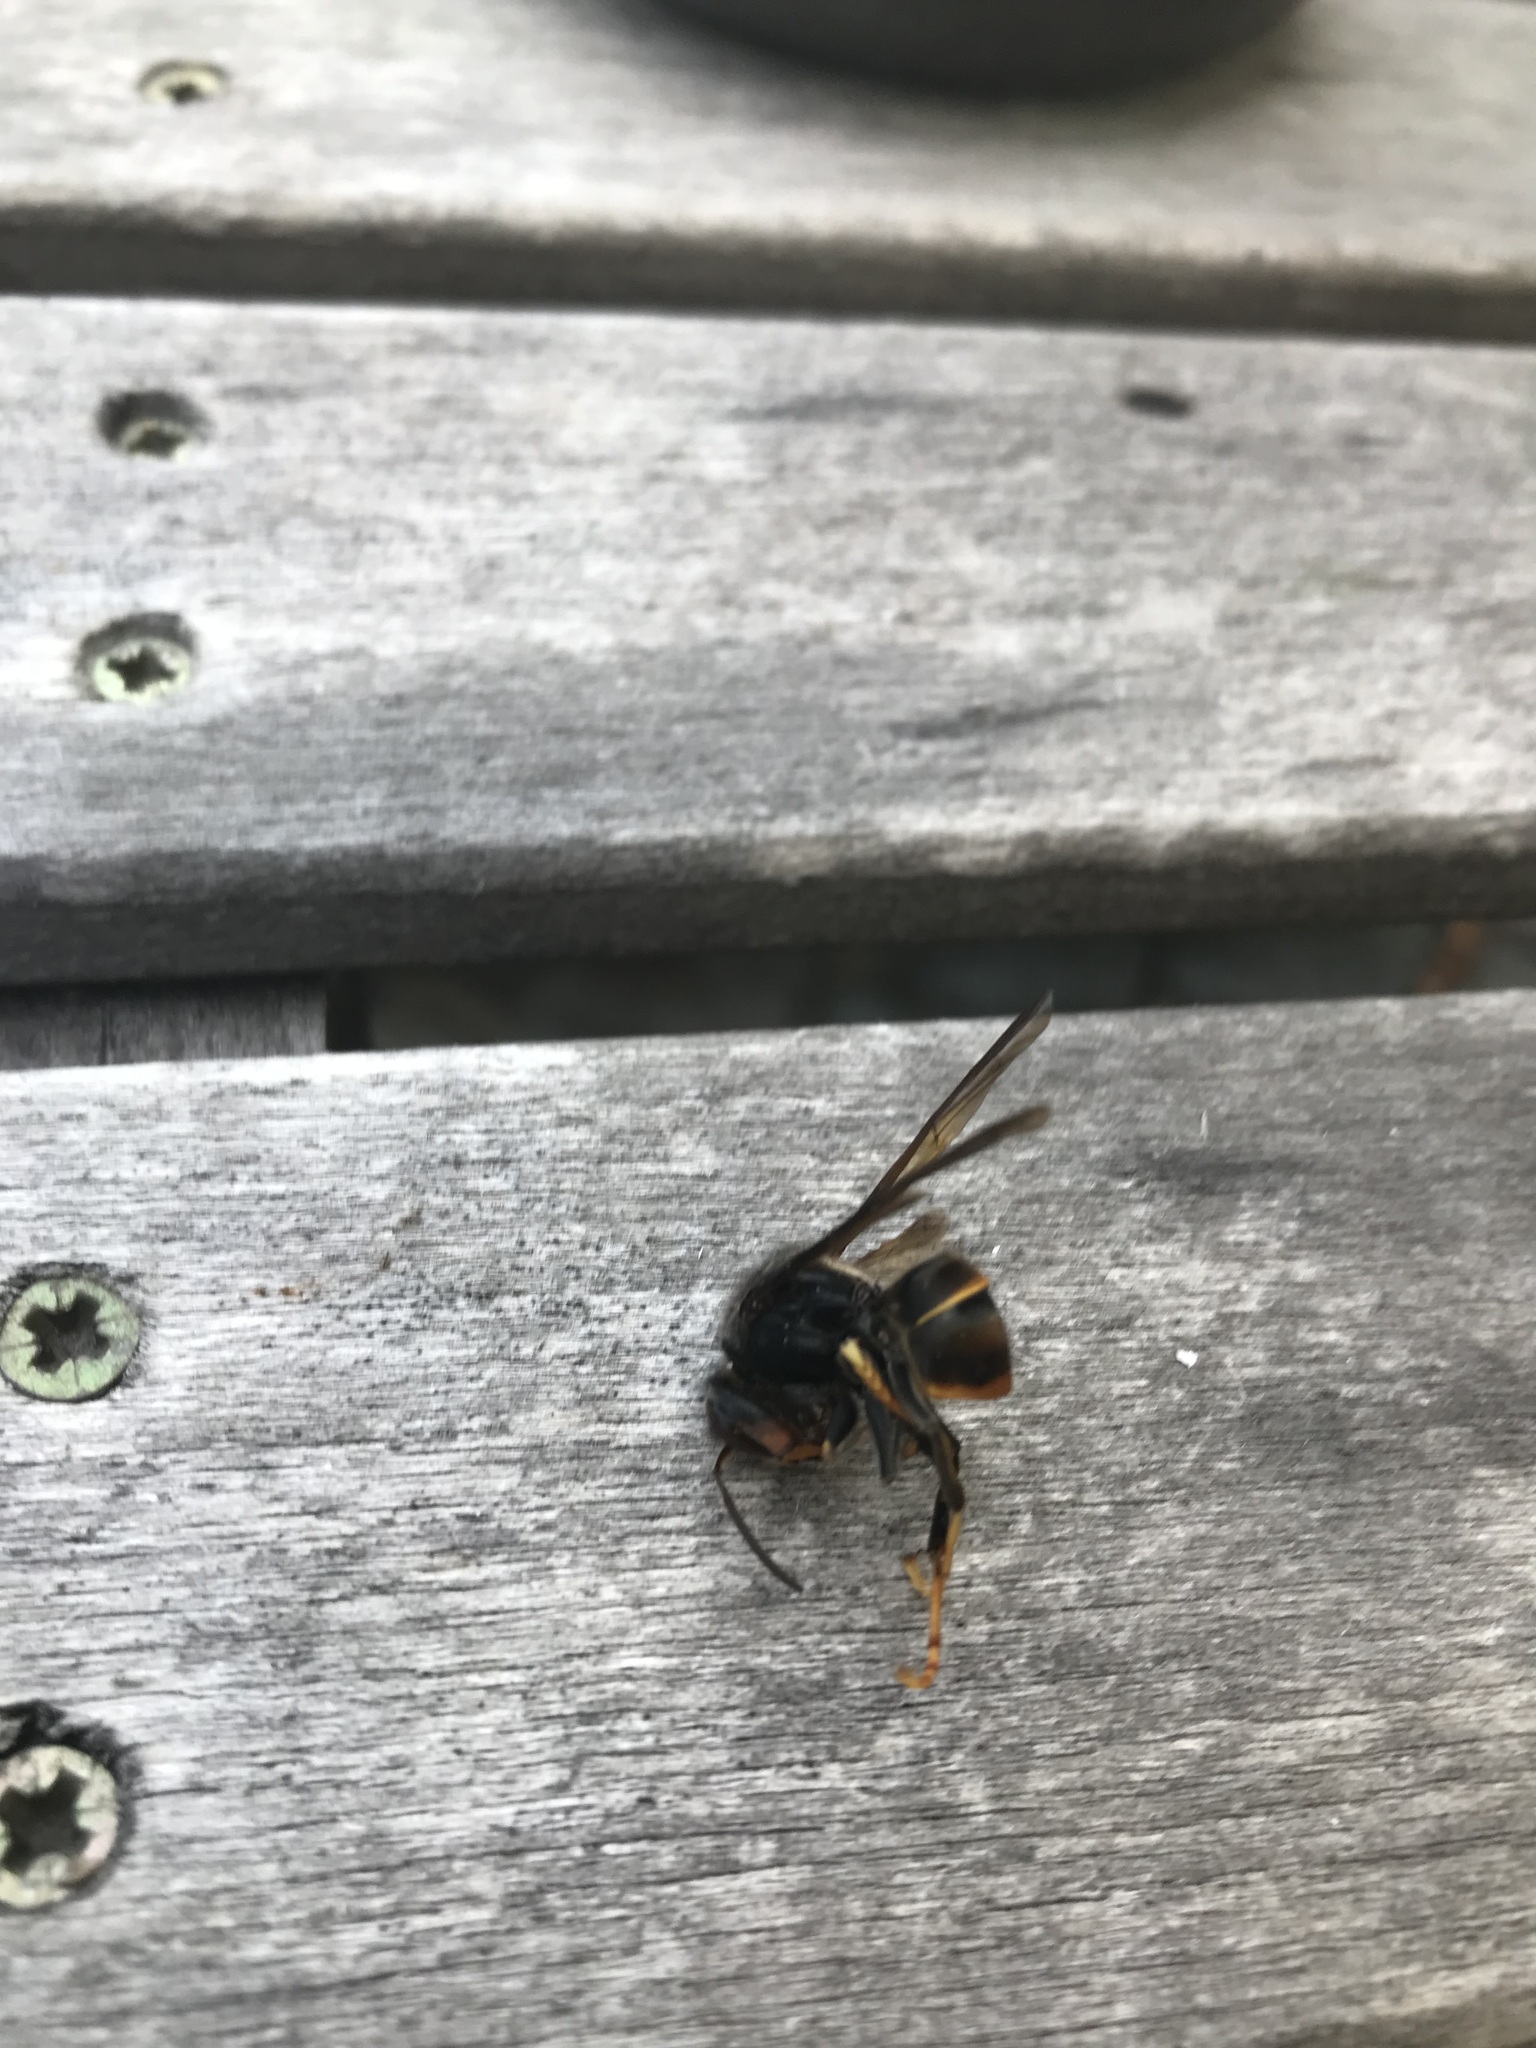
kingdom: Animalia
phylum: Arthropoda
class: Insecta
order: Hymenoptera
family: Vespidae
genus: Vespa
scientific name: Vespa velutina
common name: Asian hornet
